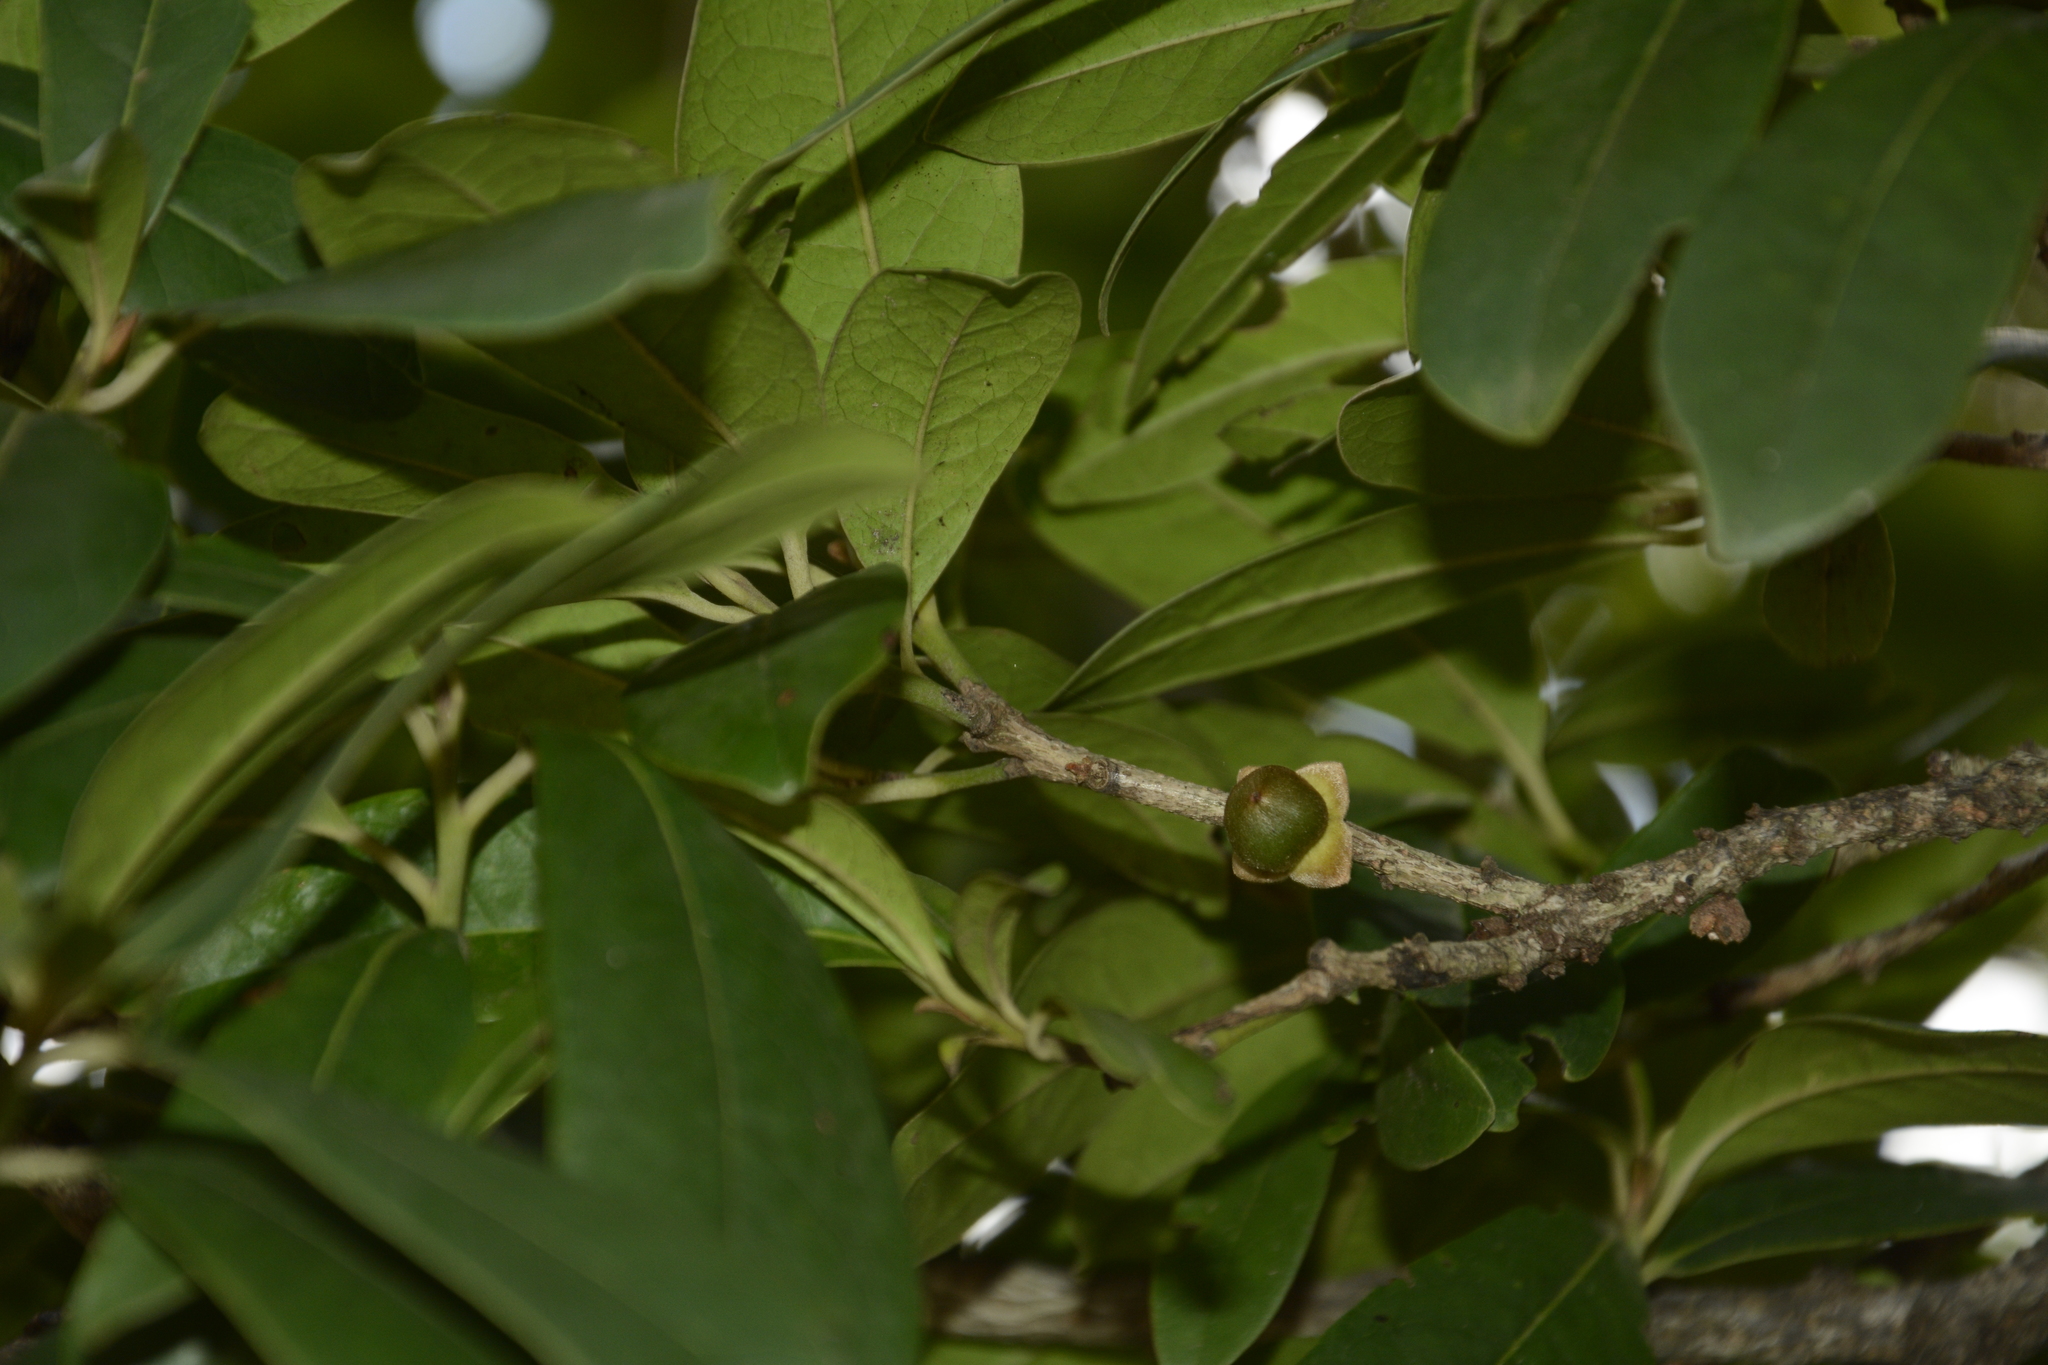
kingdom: Plantae
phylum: Tracheophyta
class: Magnoliopsida
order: Ericales
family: Ebenaceae
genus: Diospyros
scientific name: Diospyros ovalifolia
